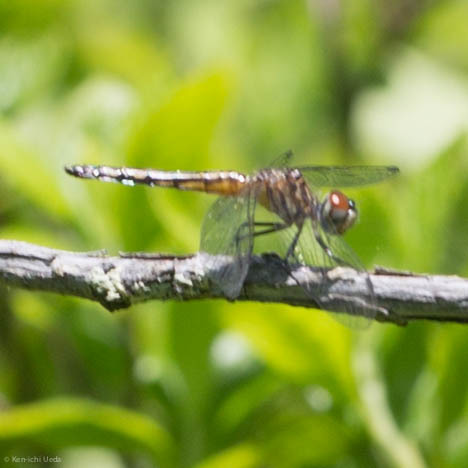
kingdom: Animalia
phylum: Arthropoda
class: Insecta
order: Odonata
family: Libellulidae
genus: Pachydiplax
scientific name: Pachydiplax longipennis
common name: Blue dasher
